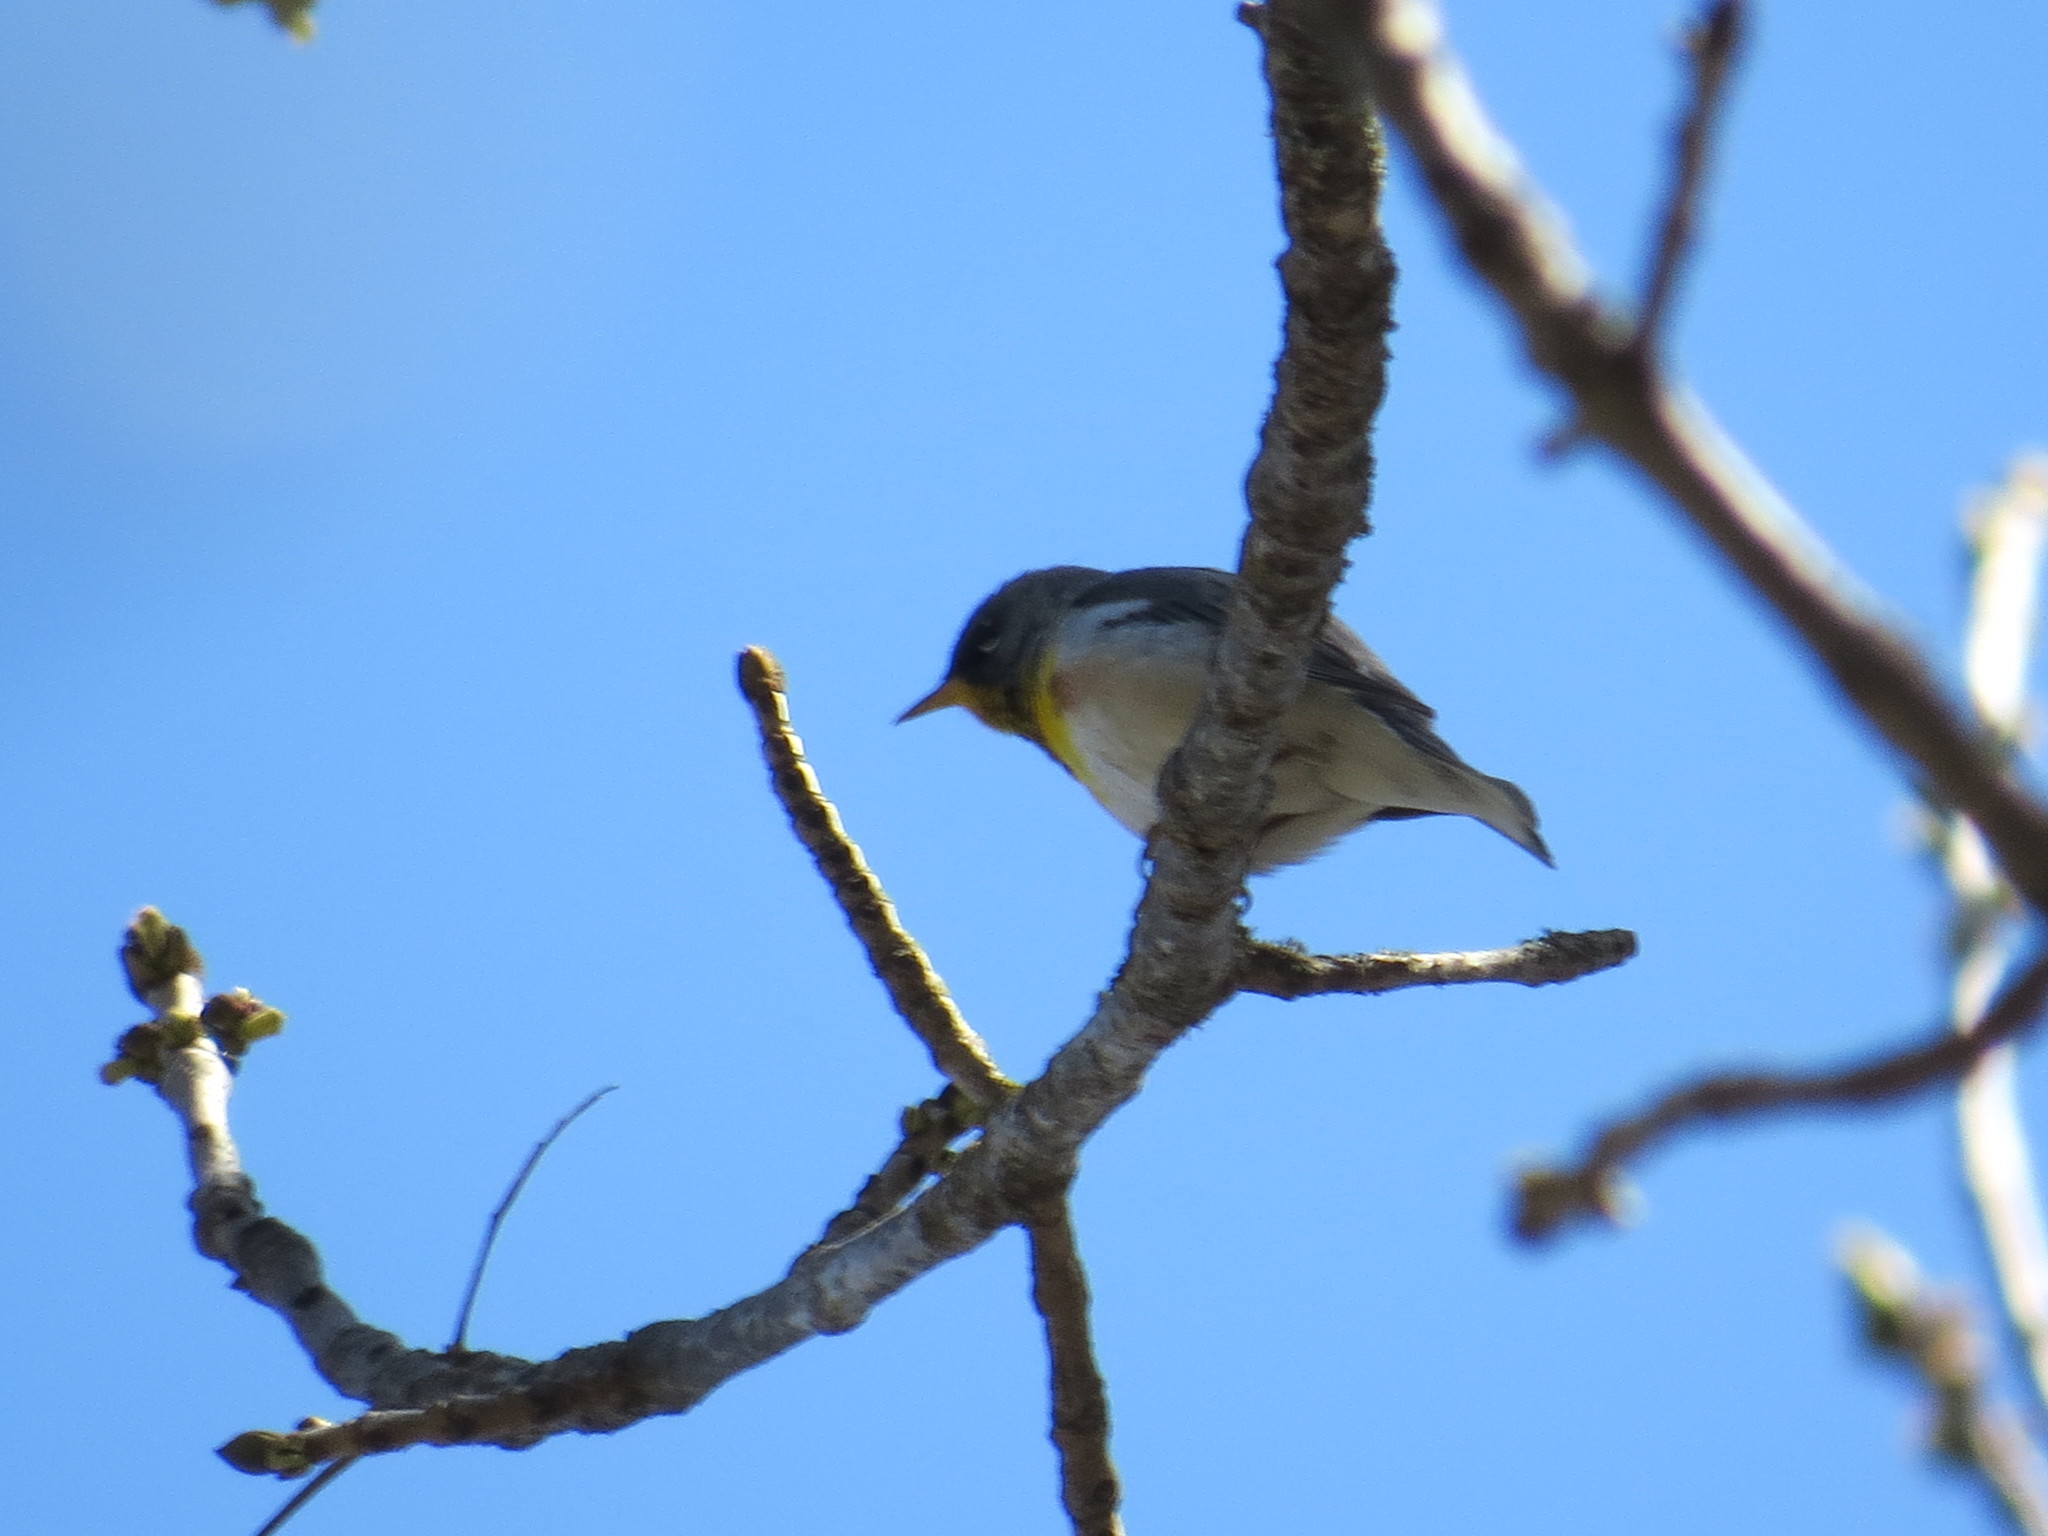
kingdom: Animalia
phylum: Chordata
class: Aves
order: Passeriformes
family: Parulidae
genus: Setophaga
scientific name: Setophaga americana
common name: Northern parula
